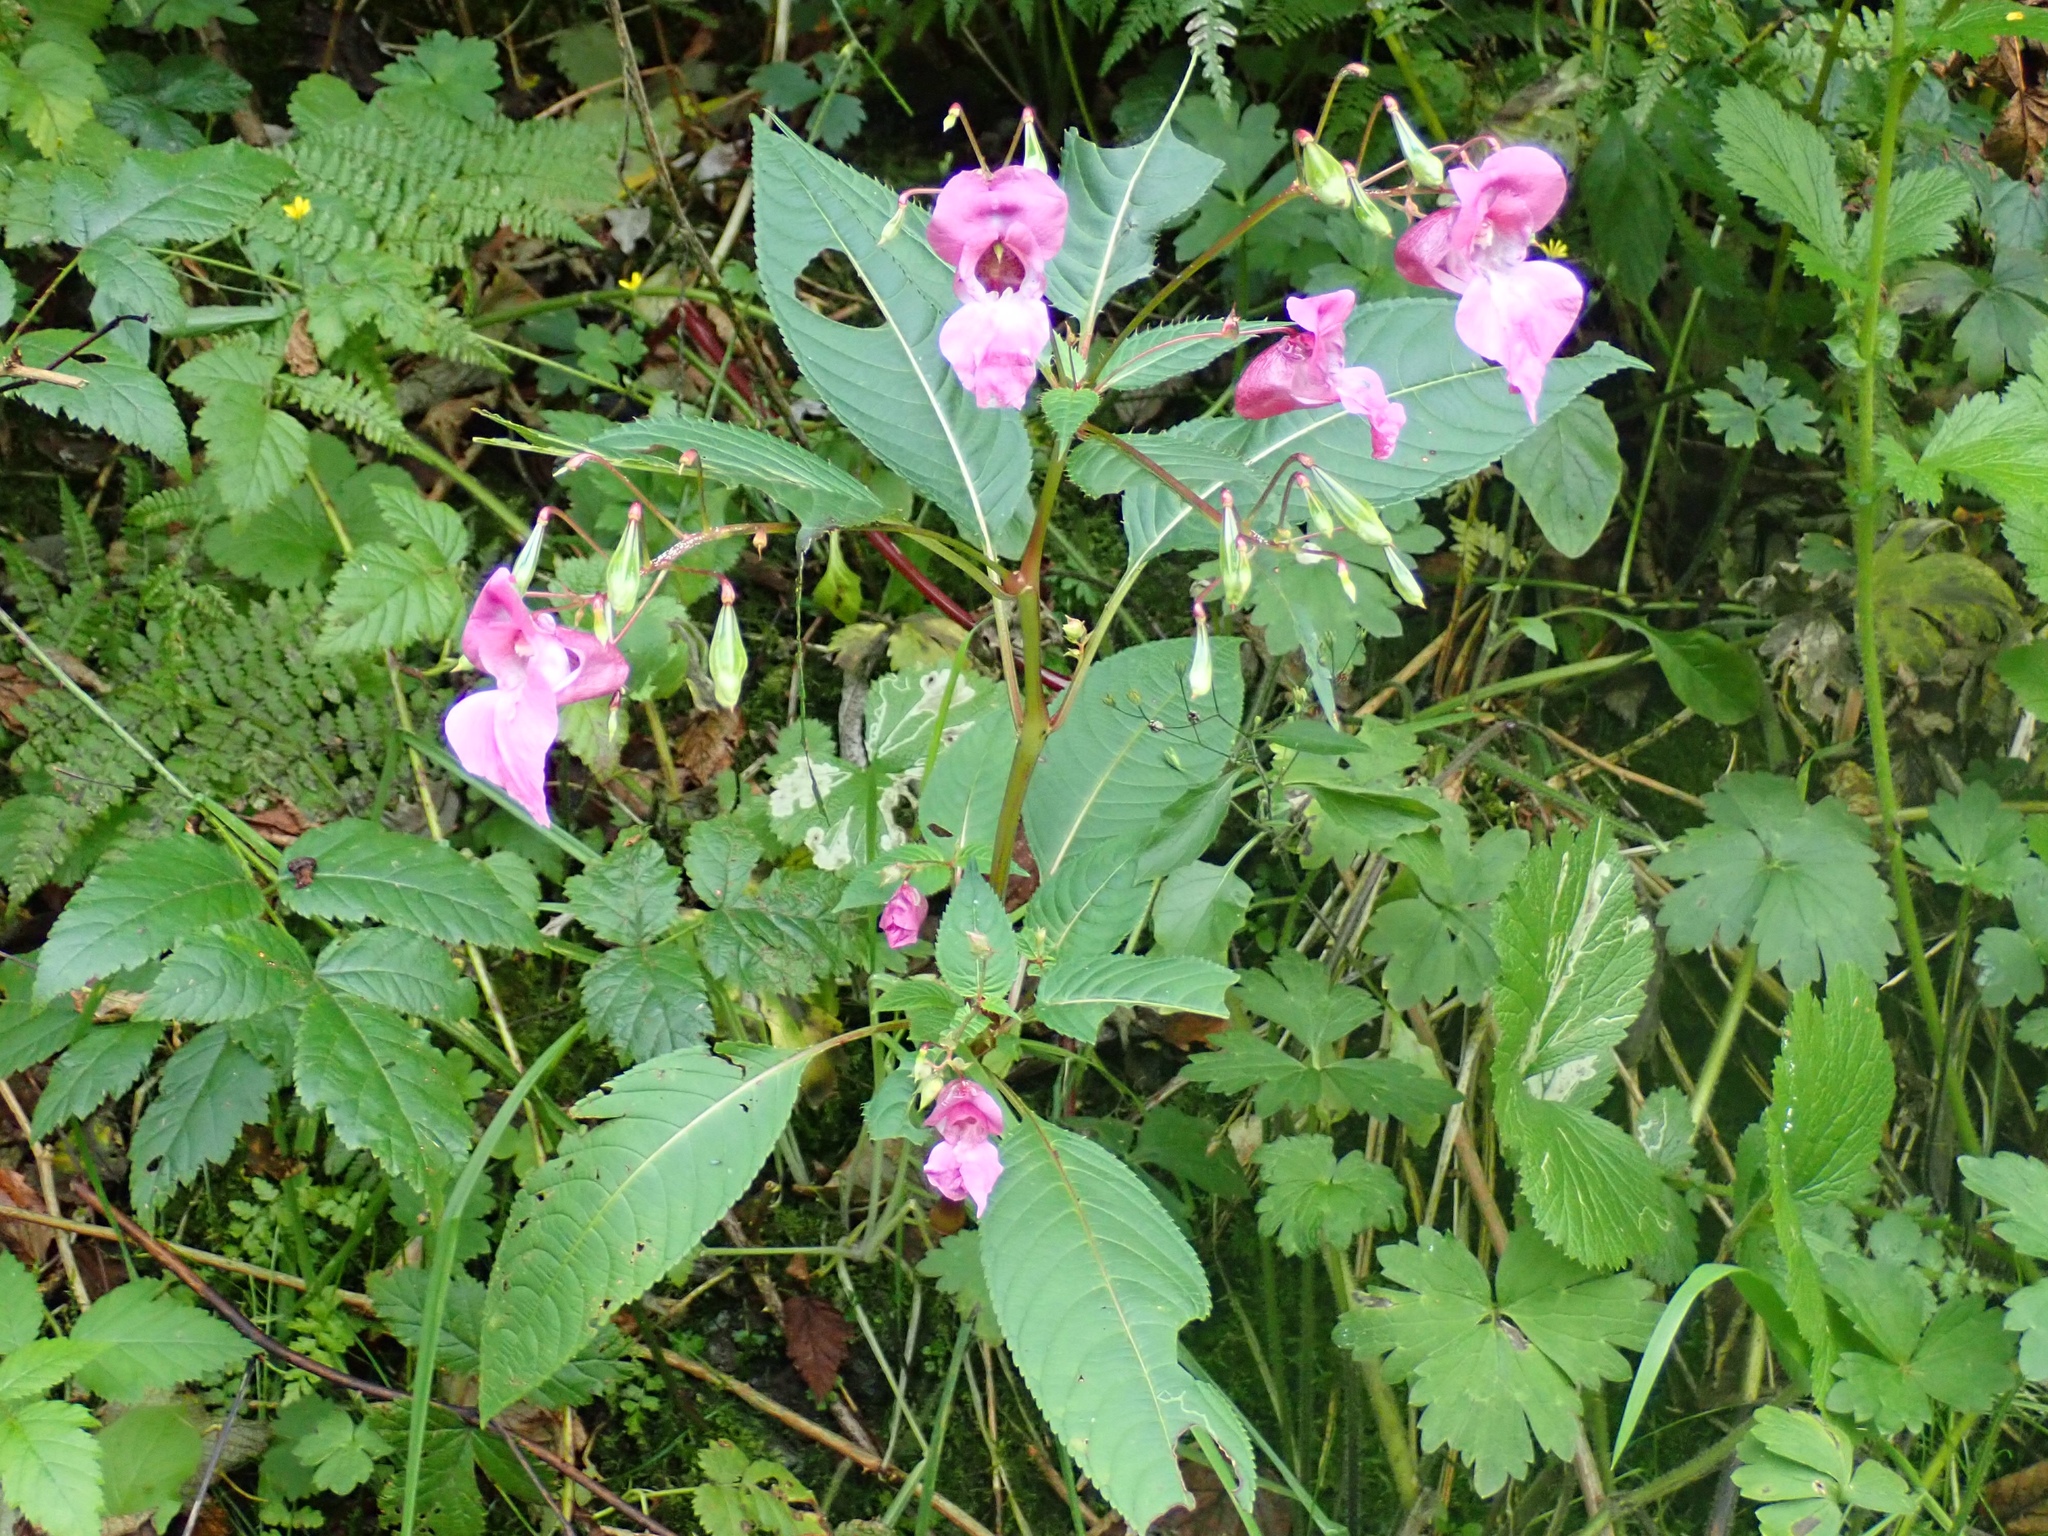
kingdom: Plantae
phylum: Tracheophyta
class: Magnoliopsida
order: Ericales
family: Balsaminaceae
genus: Impatiens
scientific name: Impatiens glandulifera
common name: Himalayan balsam
